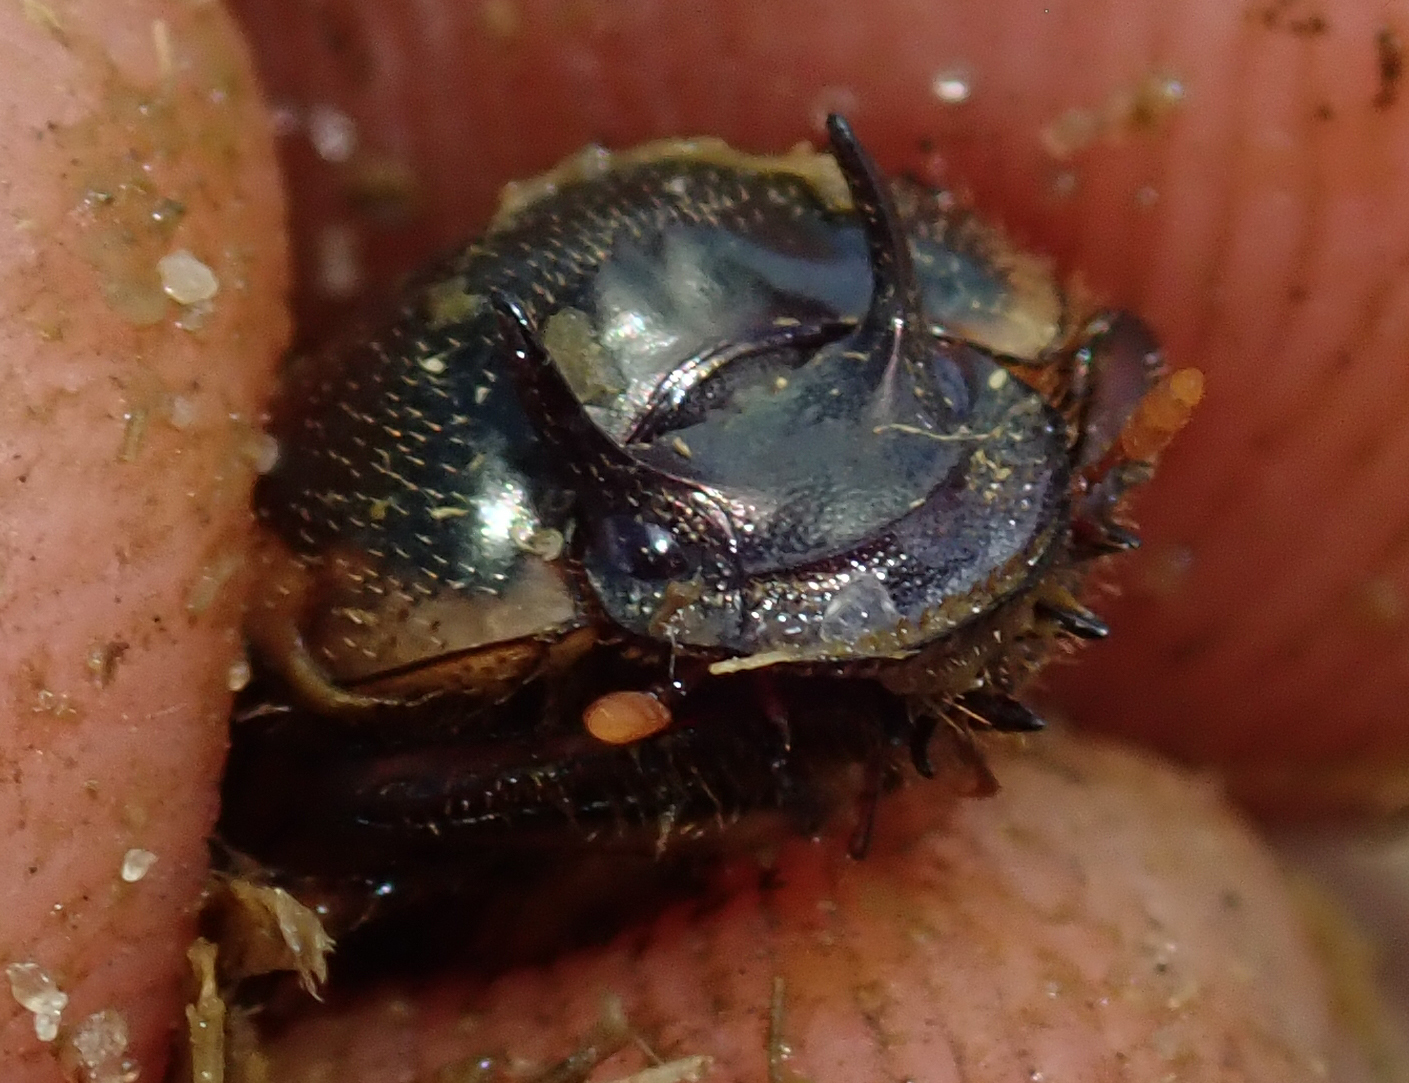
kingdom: Animalia
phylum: Arthropoda
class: Insecta
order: Coleoptera
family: Scarabaeidae
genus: Digitonthophagus
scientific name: Digitonthophagus gazella
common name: Brown dung beetle
